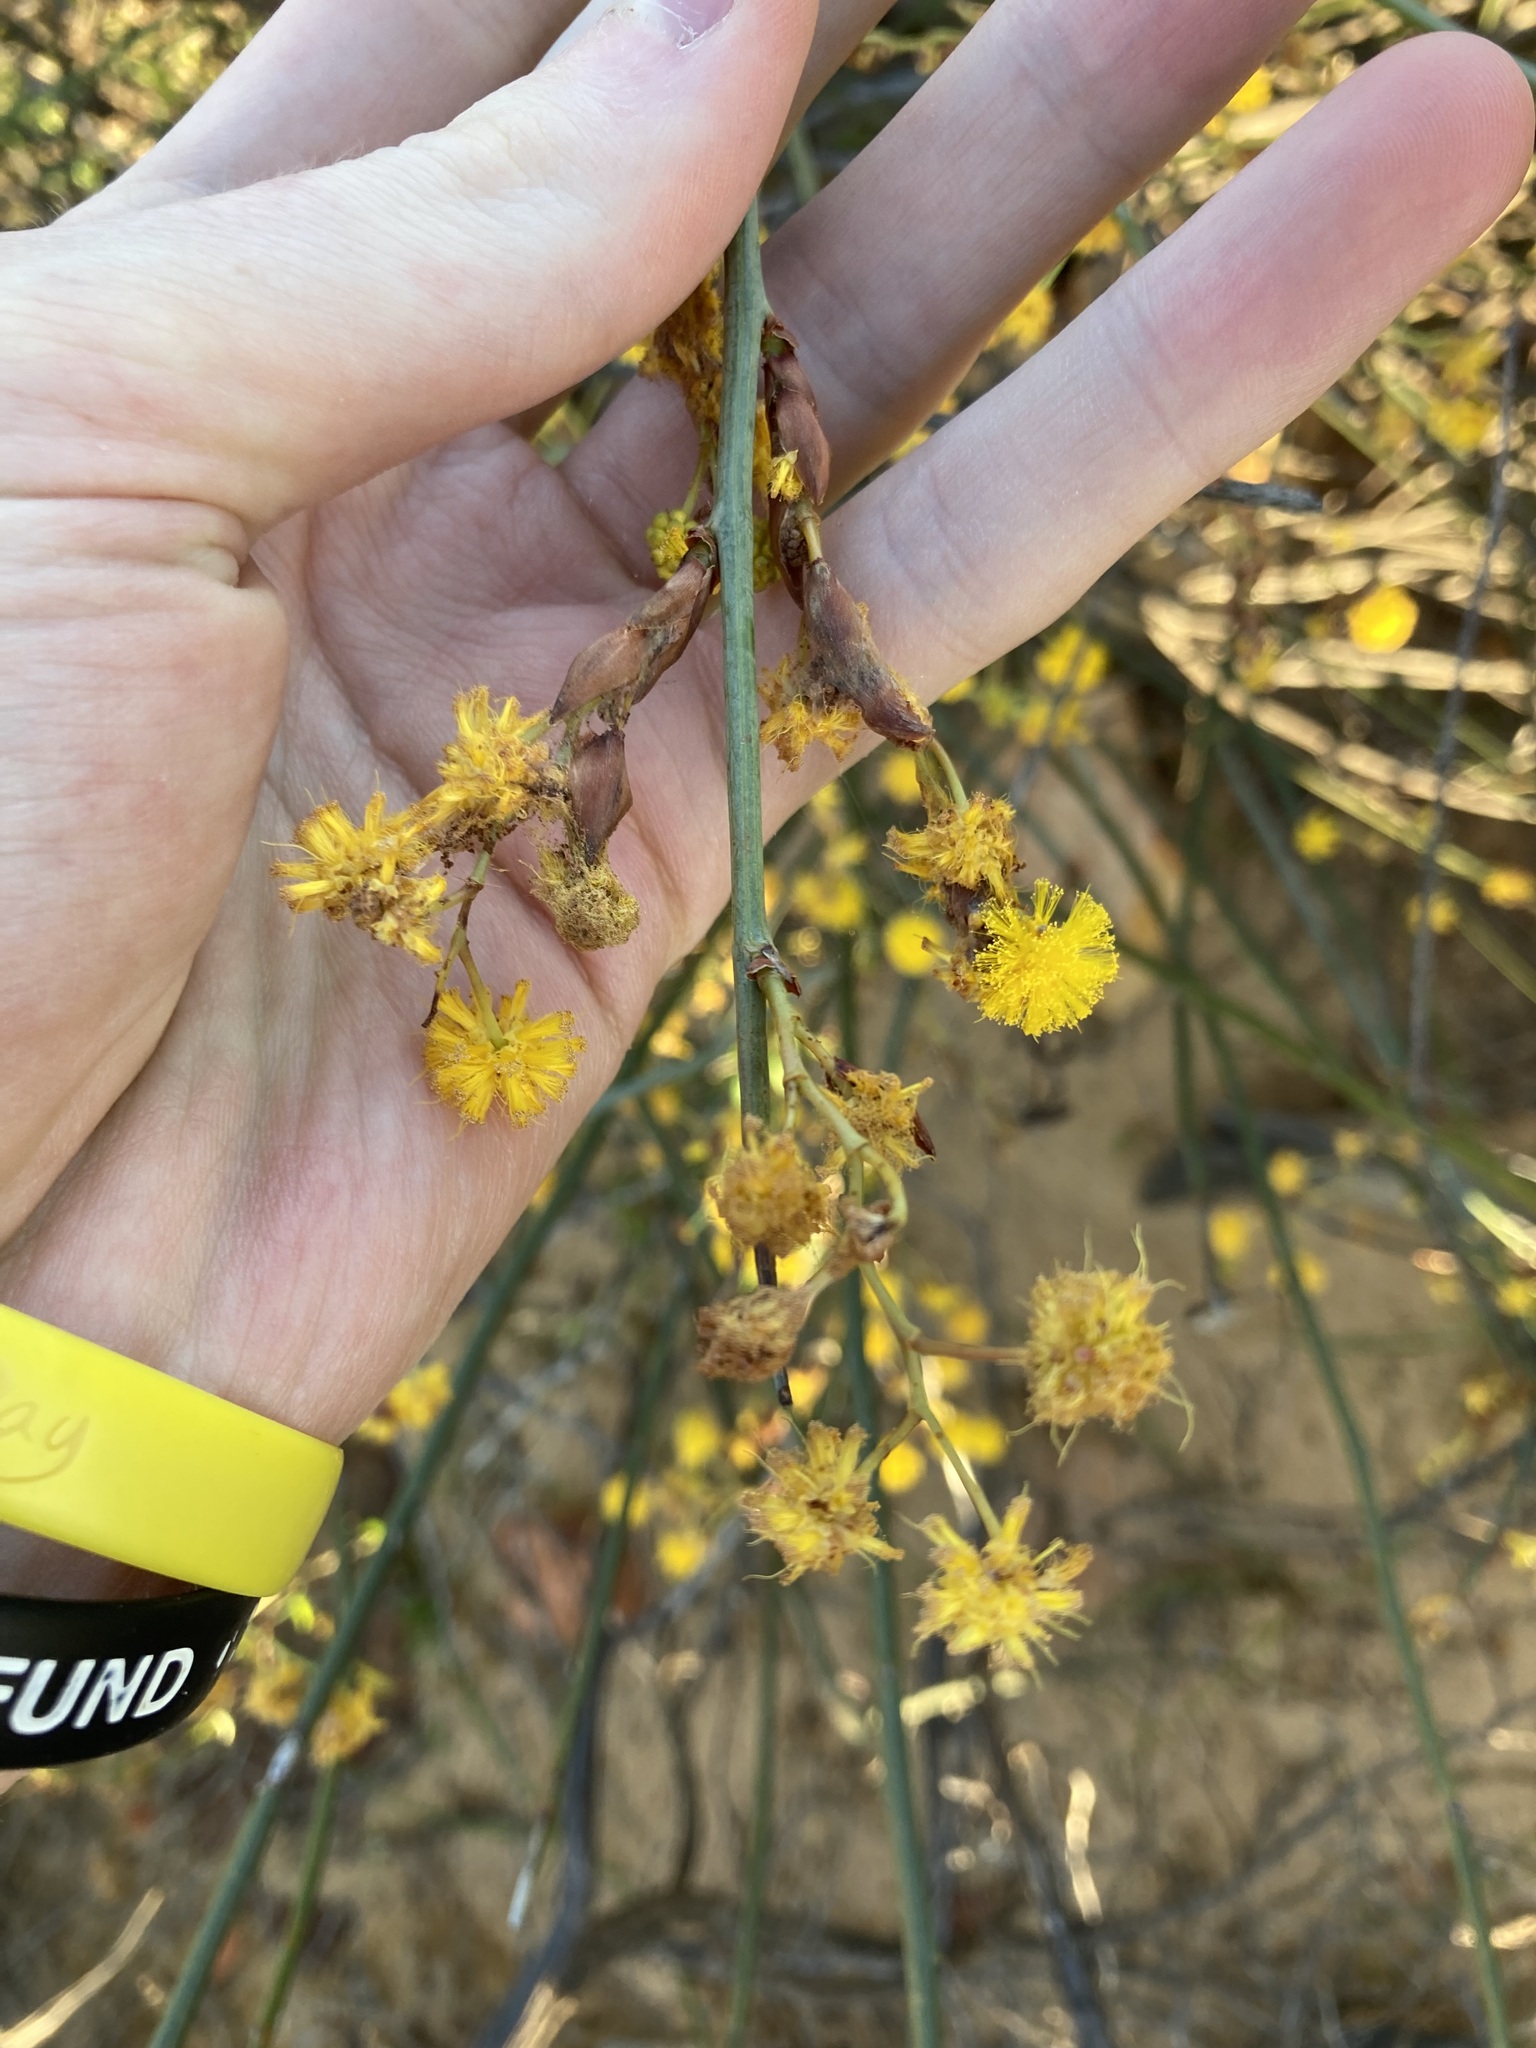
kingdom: Plantae
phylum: Tracheophyta
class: Magnoliopsida
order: Fabales
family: Fabaceae
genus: Acacia
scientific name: Acacia restiacea
